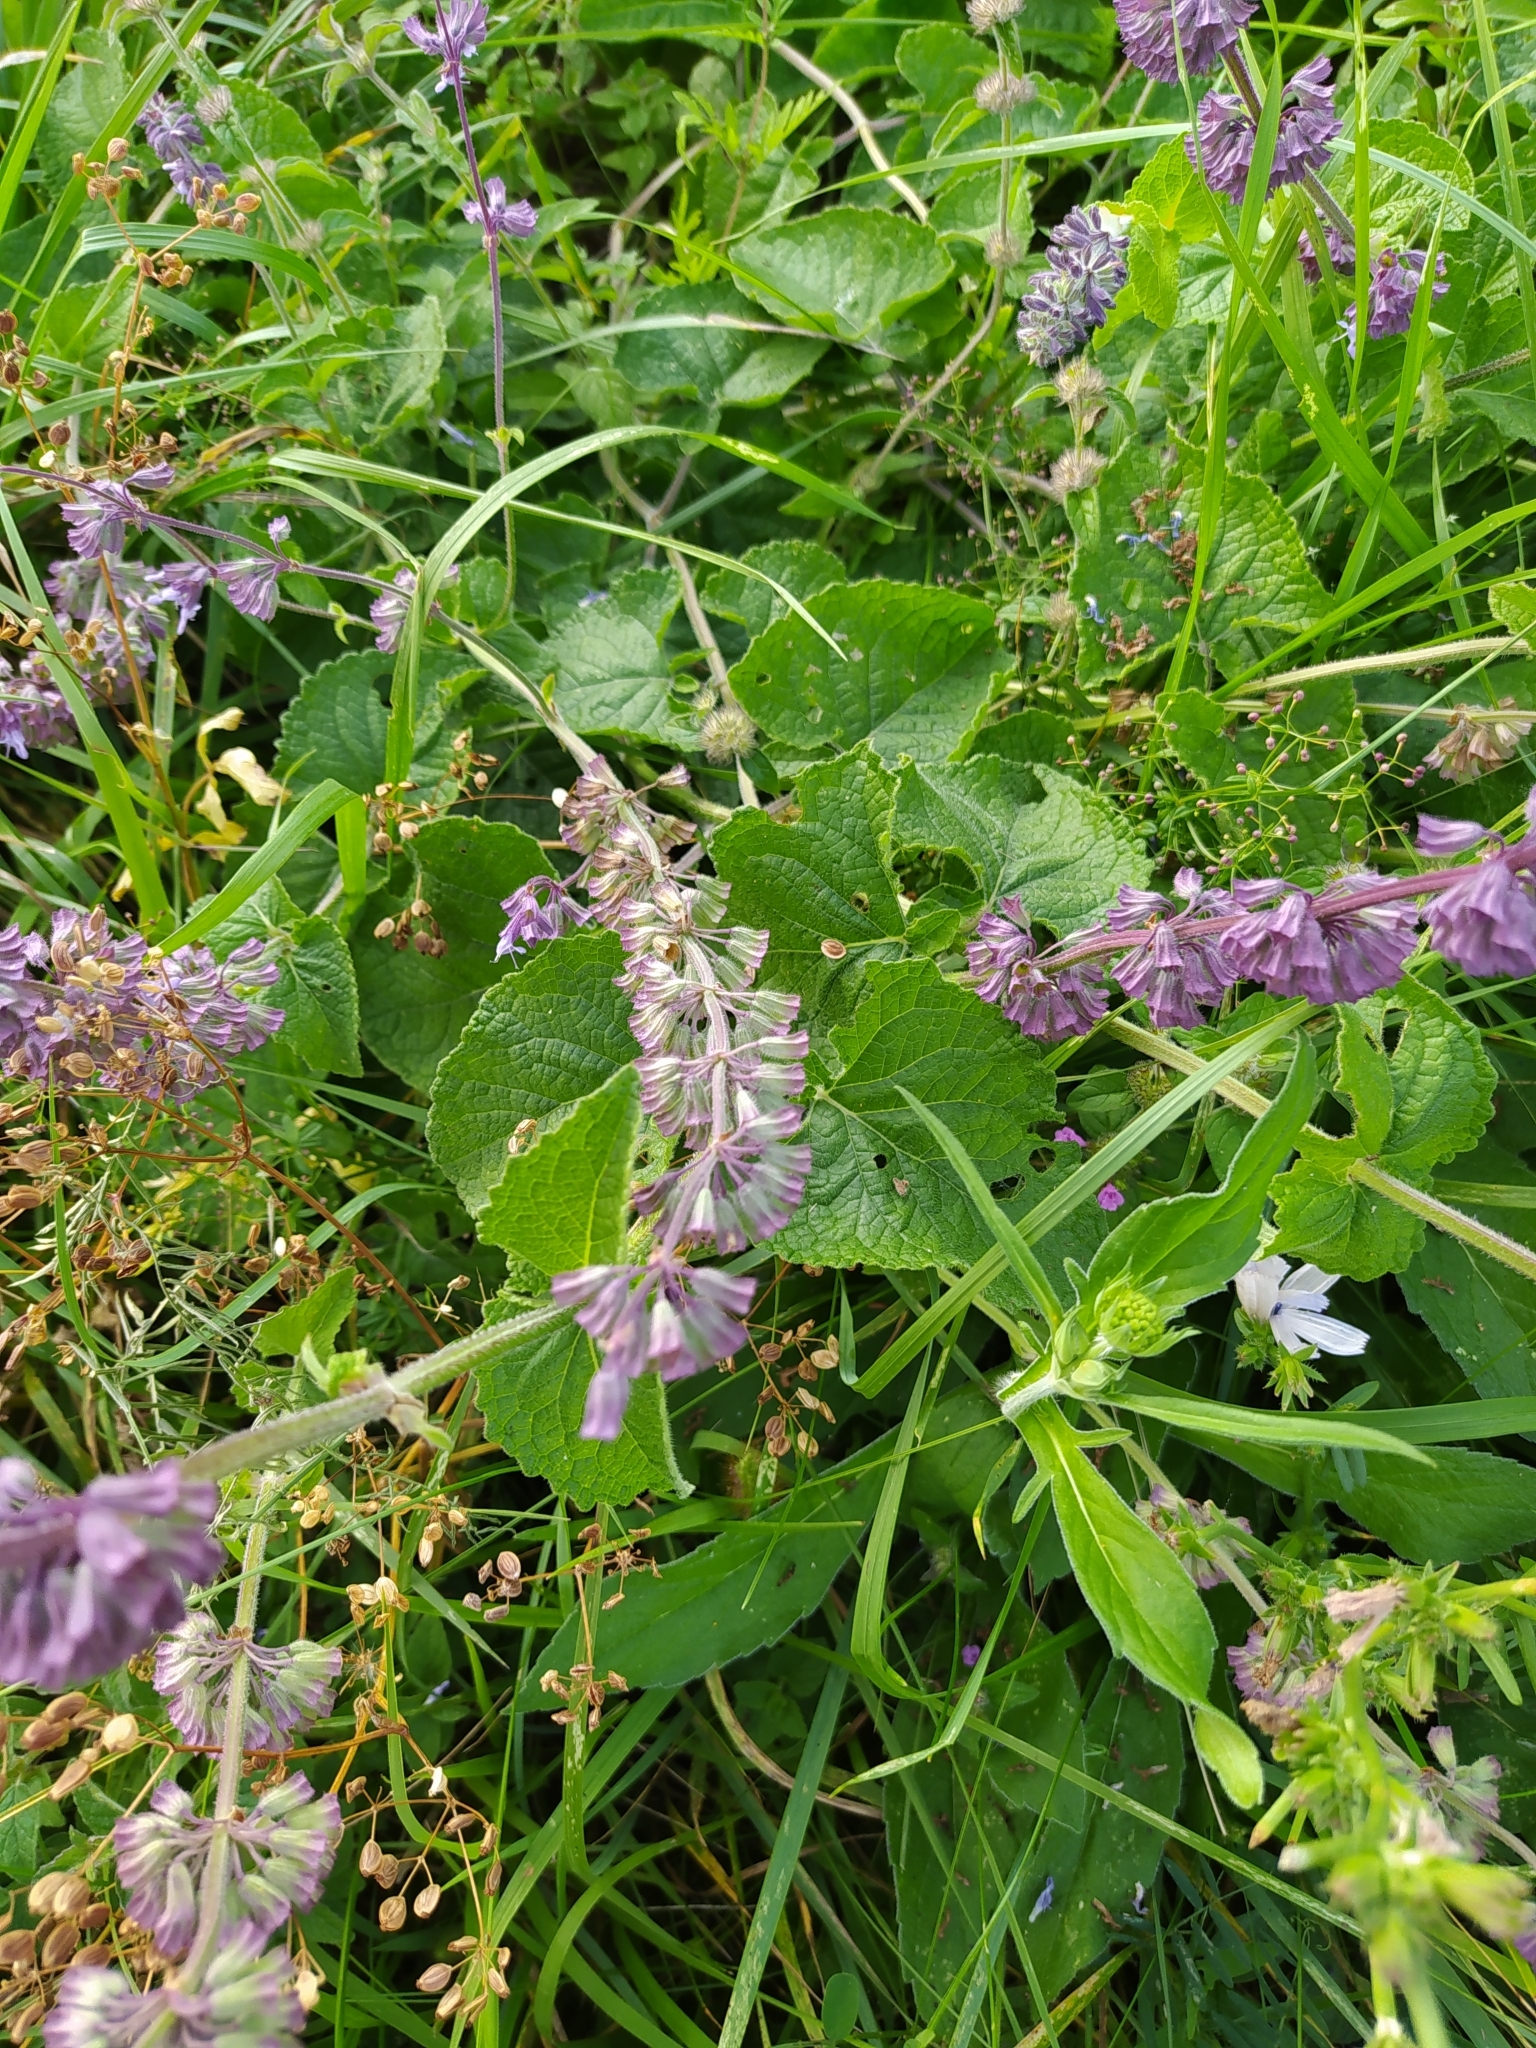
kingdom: Plantae
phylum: Tracheophyta
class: Magnoliopsida
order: Lamiales
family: Lamiaceae
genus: Salvia
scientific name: Salvia verticillata
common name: Whorled clary
